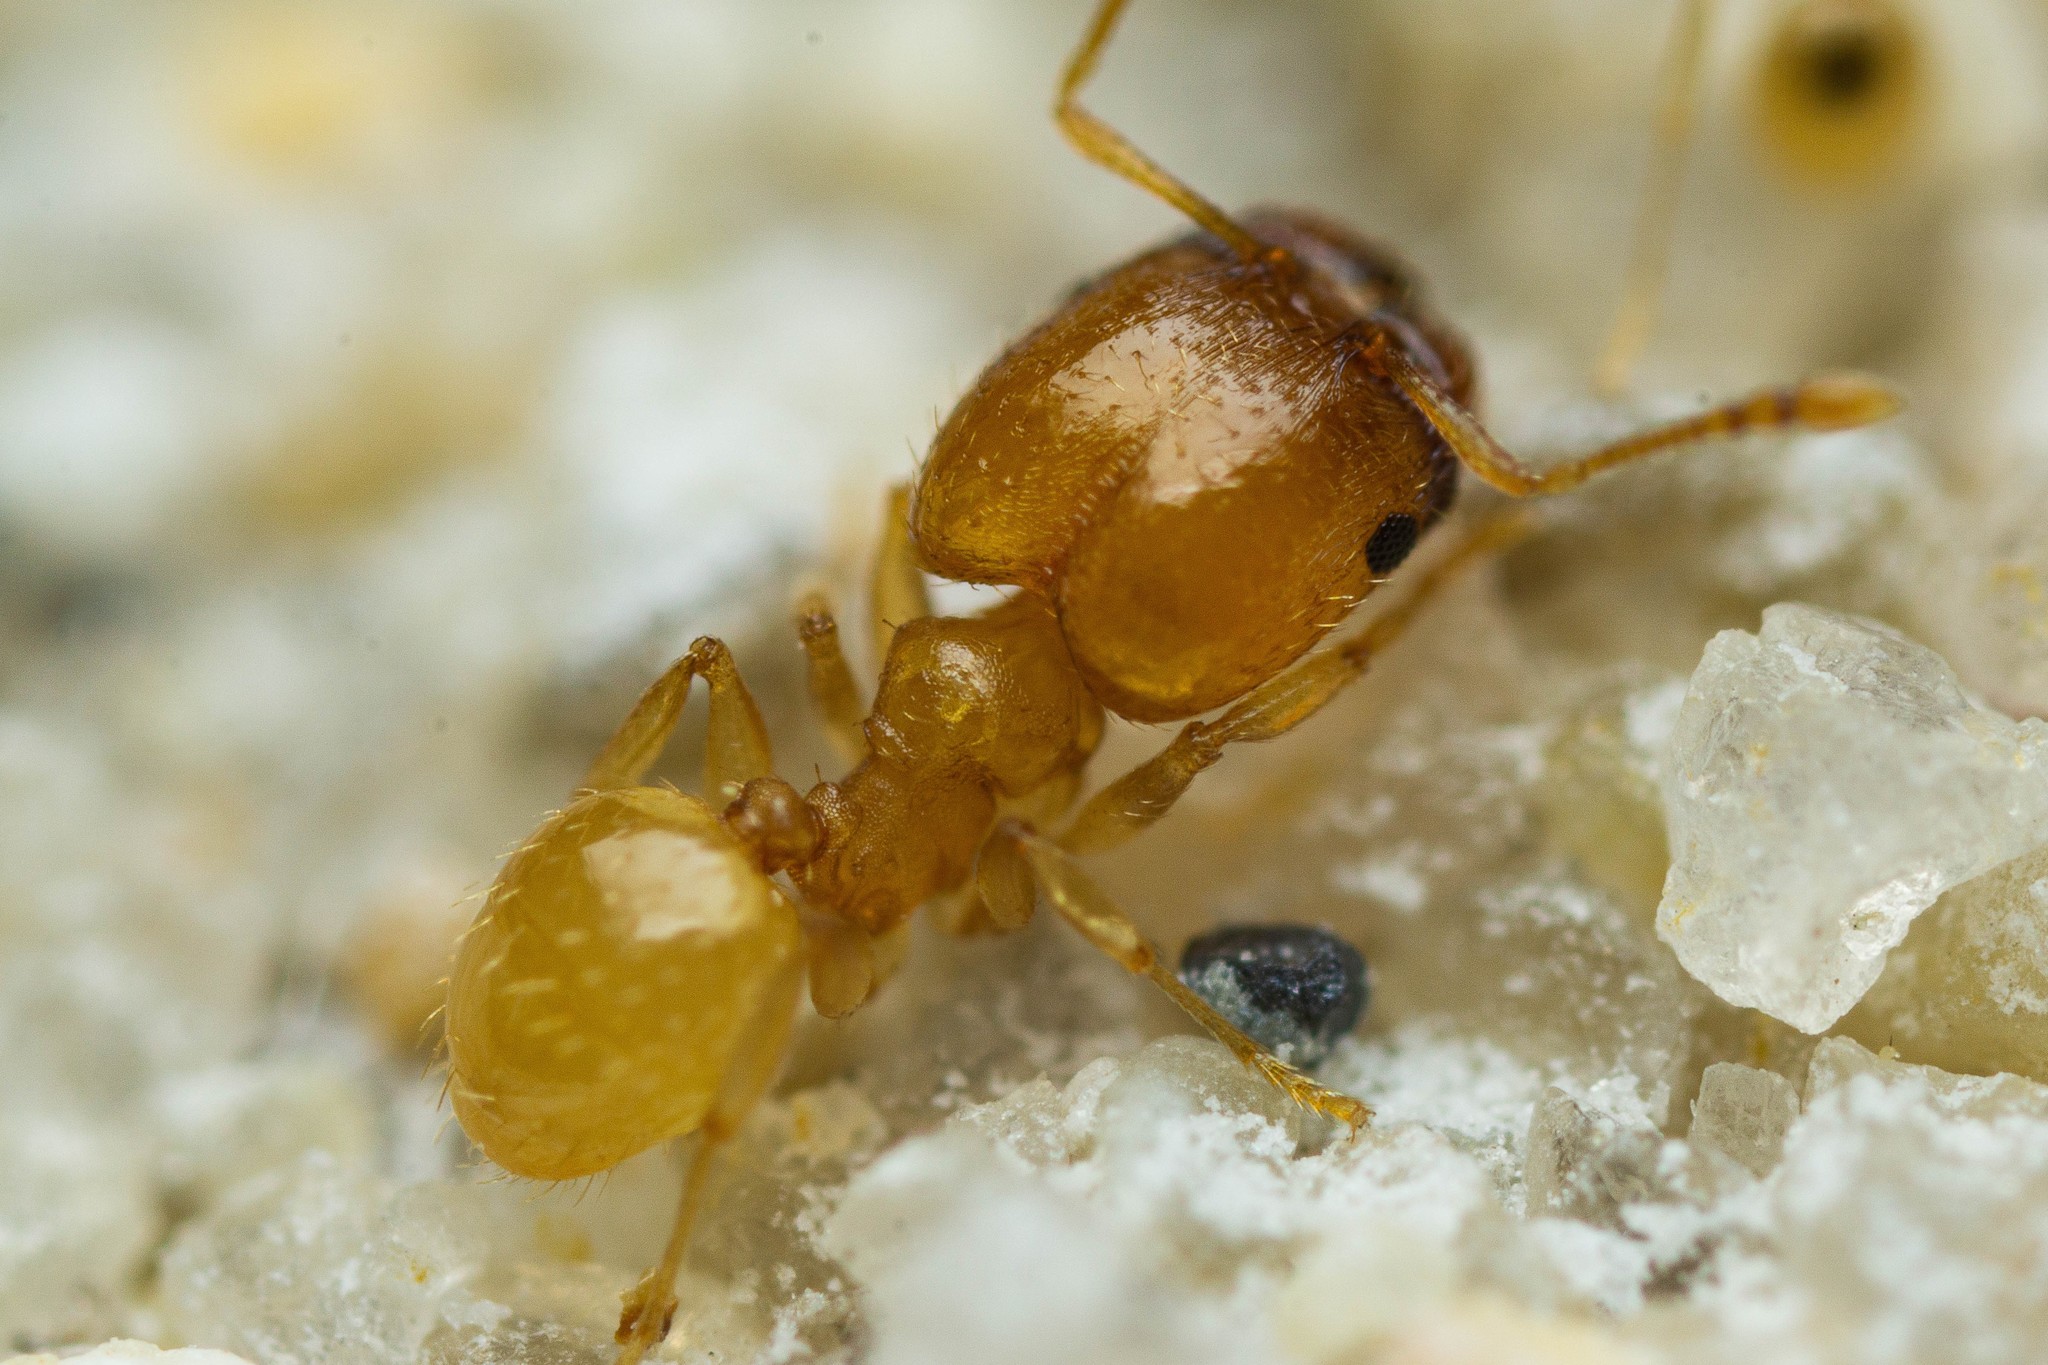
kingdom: Animalia
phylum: Arthropoda
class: Insecta
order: Hymenoptera
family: Formicidae
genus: Pheidole
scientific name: Pheidole marcidula
